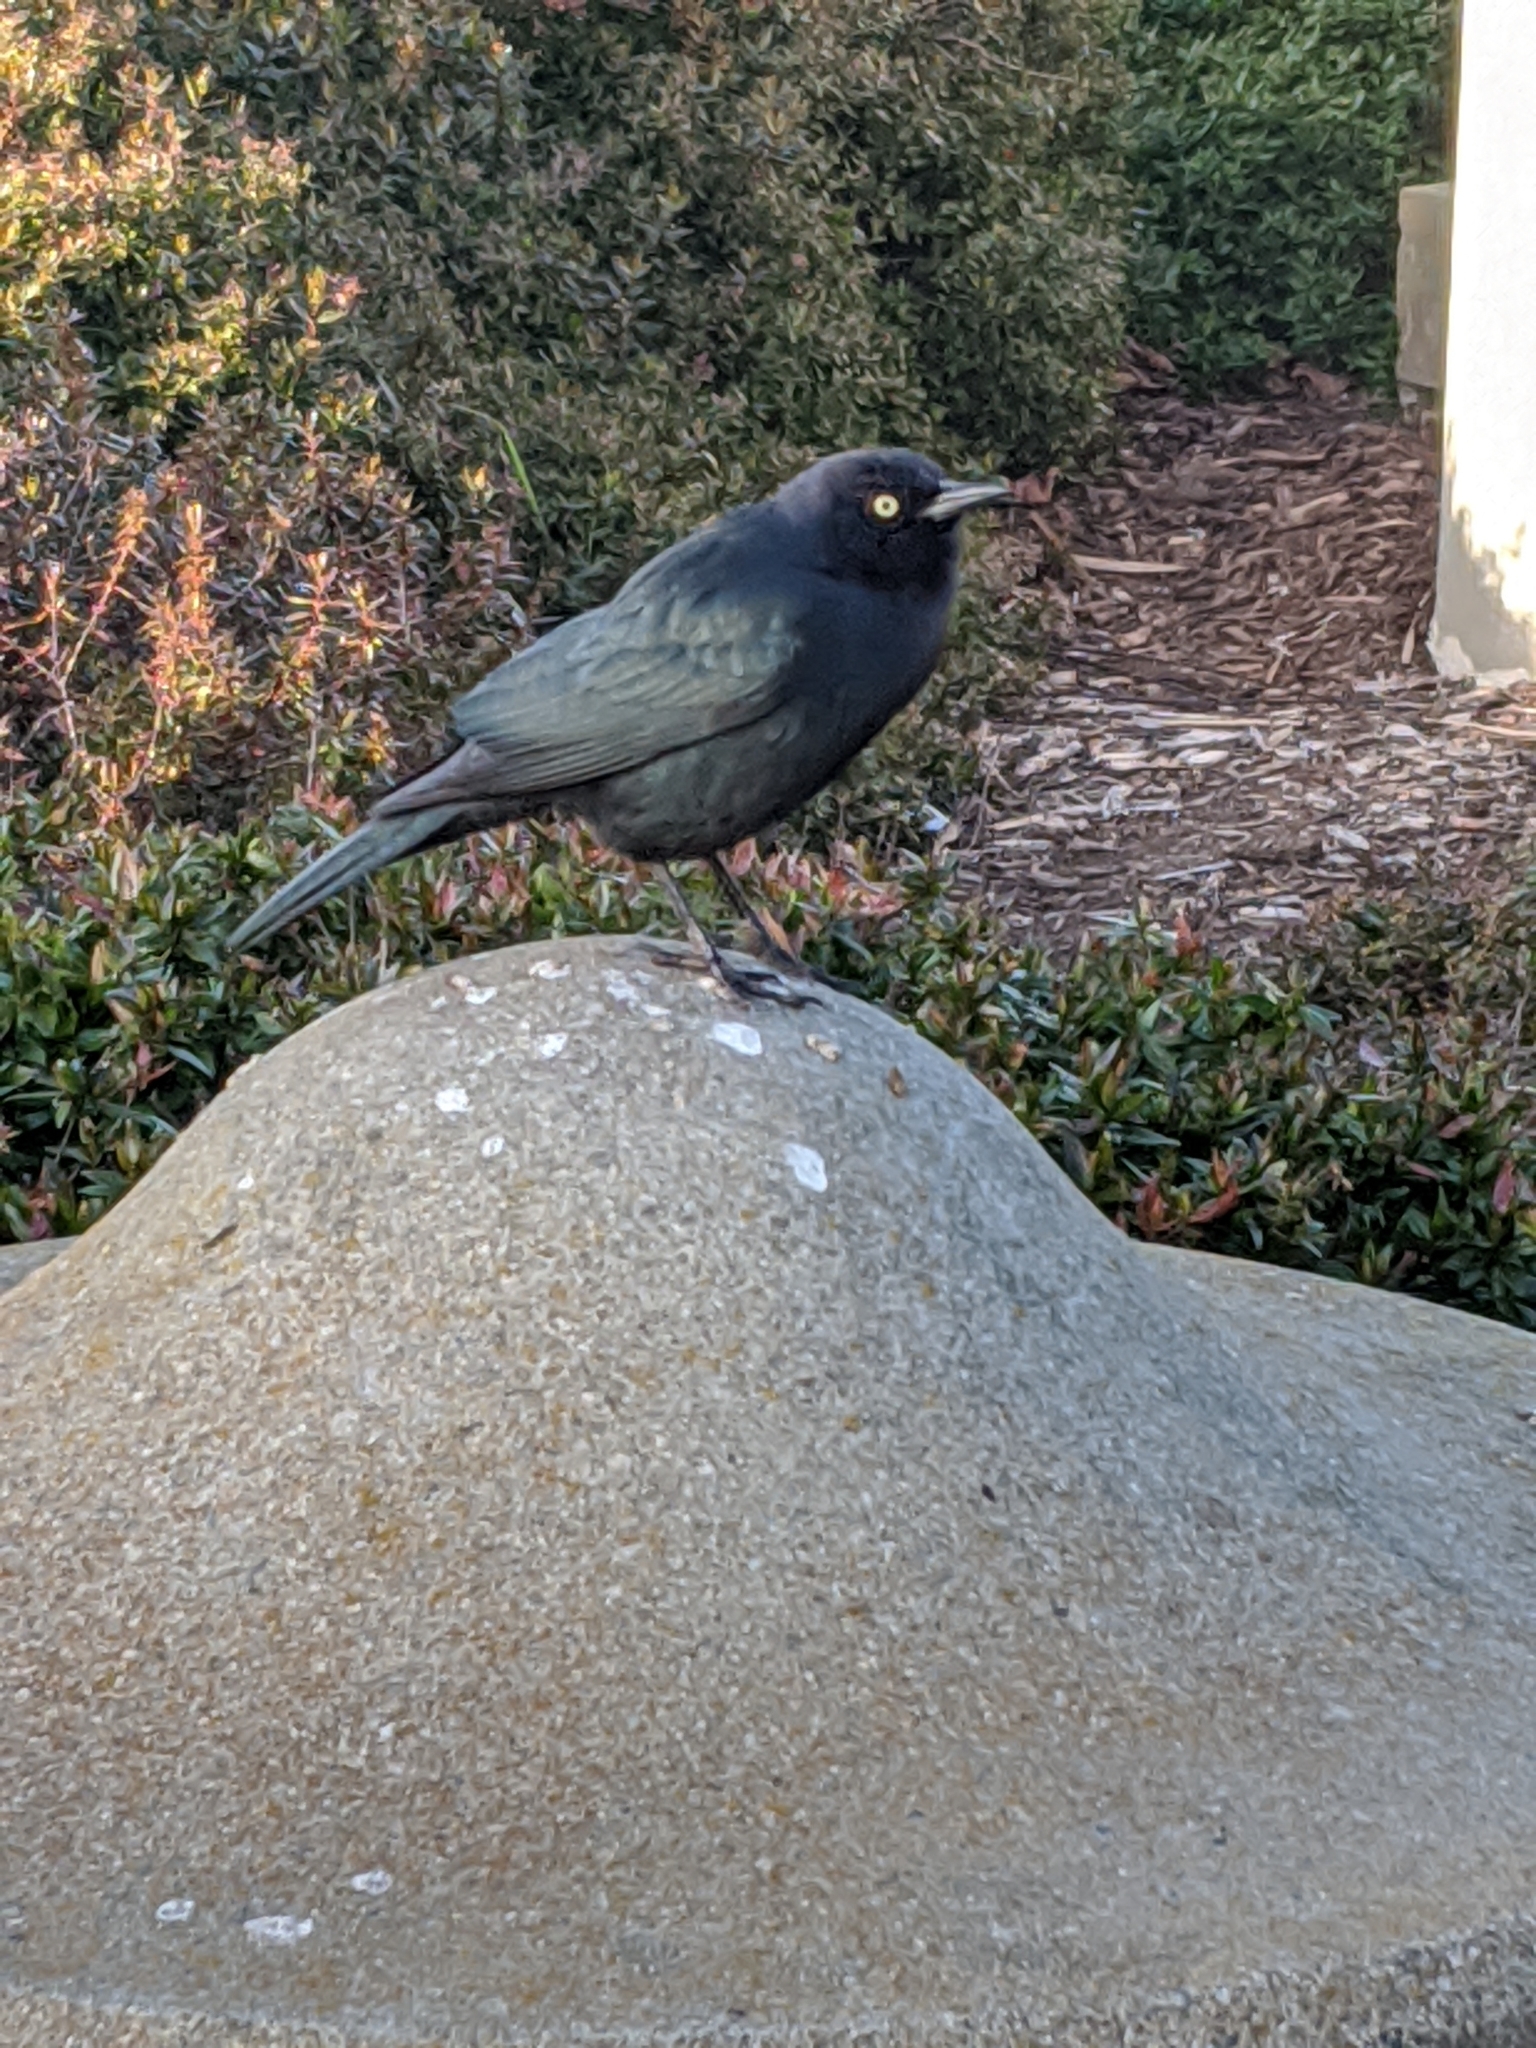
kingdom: Animalia
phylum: Chordata
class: Aves
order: Passeriformes
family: Icteridae
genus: Euphagus
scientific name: Euphagus cyanocephalus
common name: Brewer's blackbird
